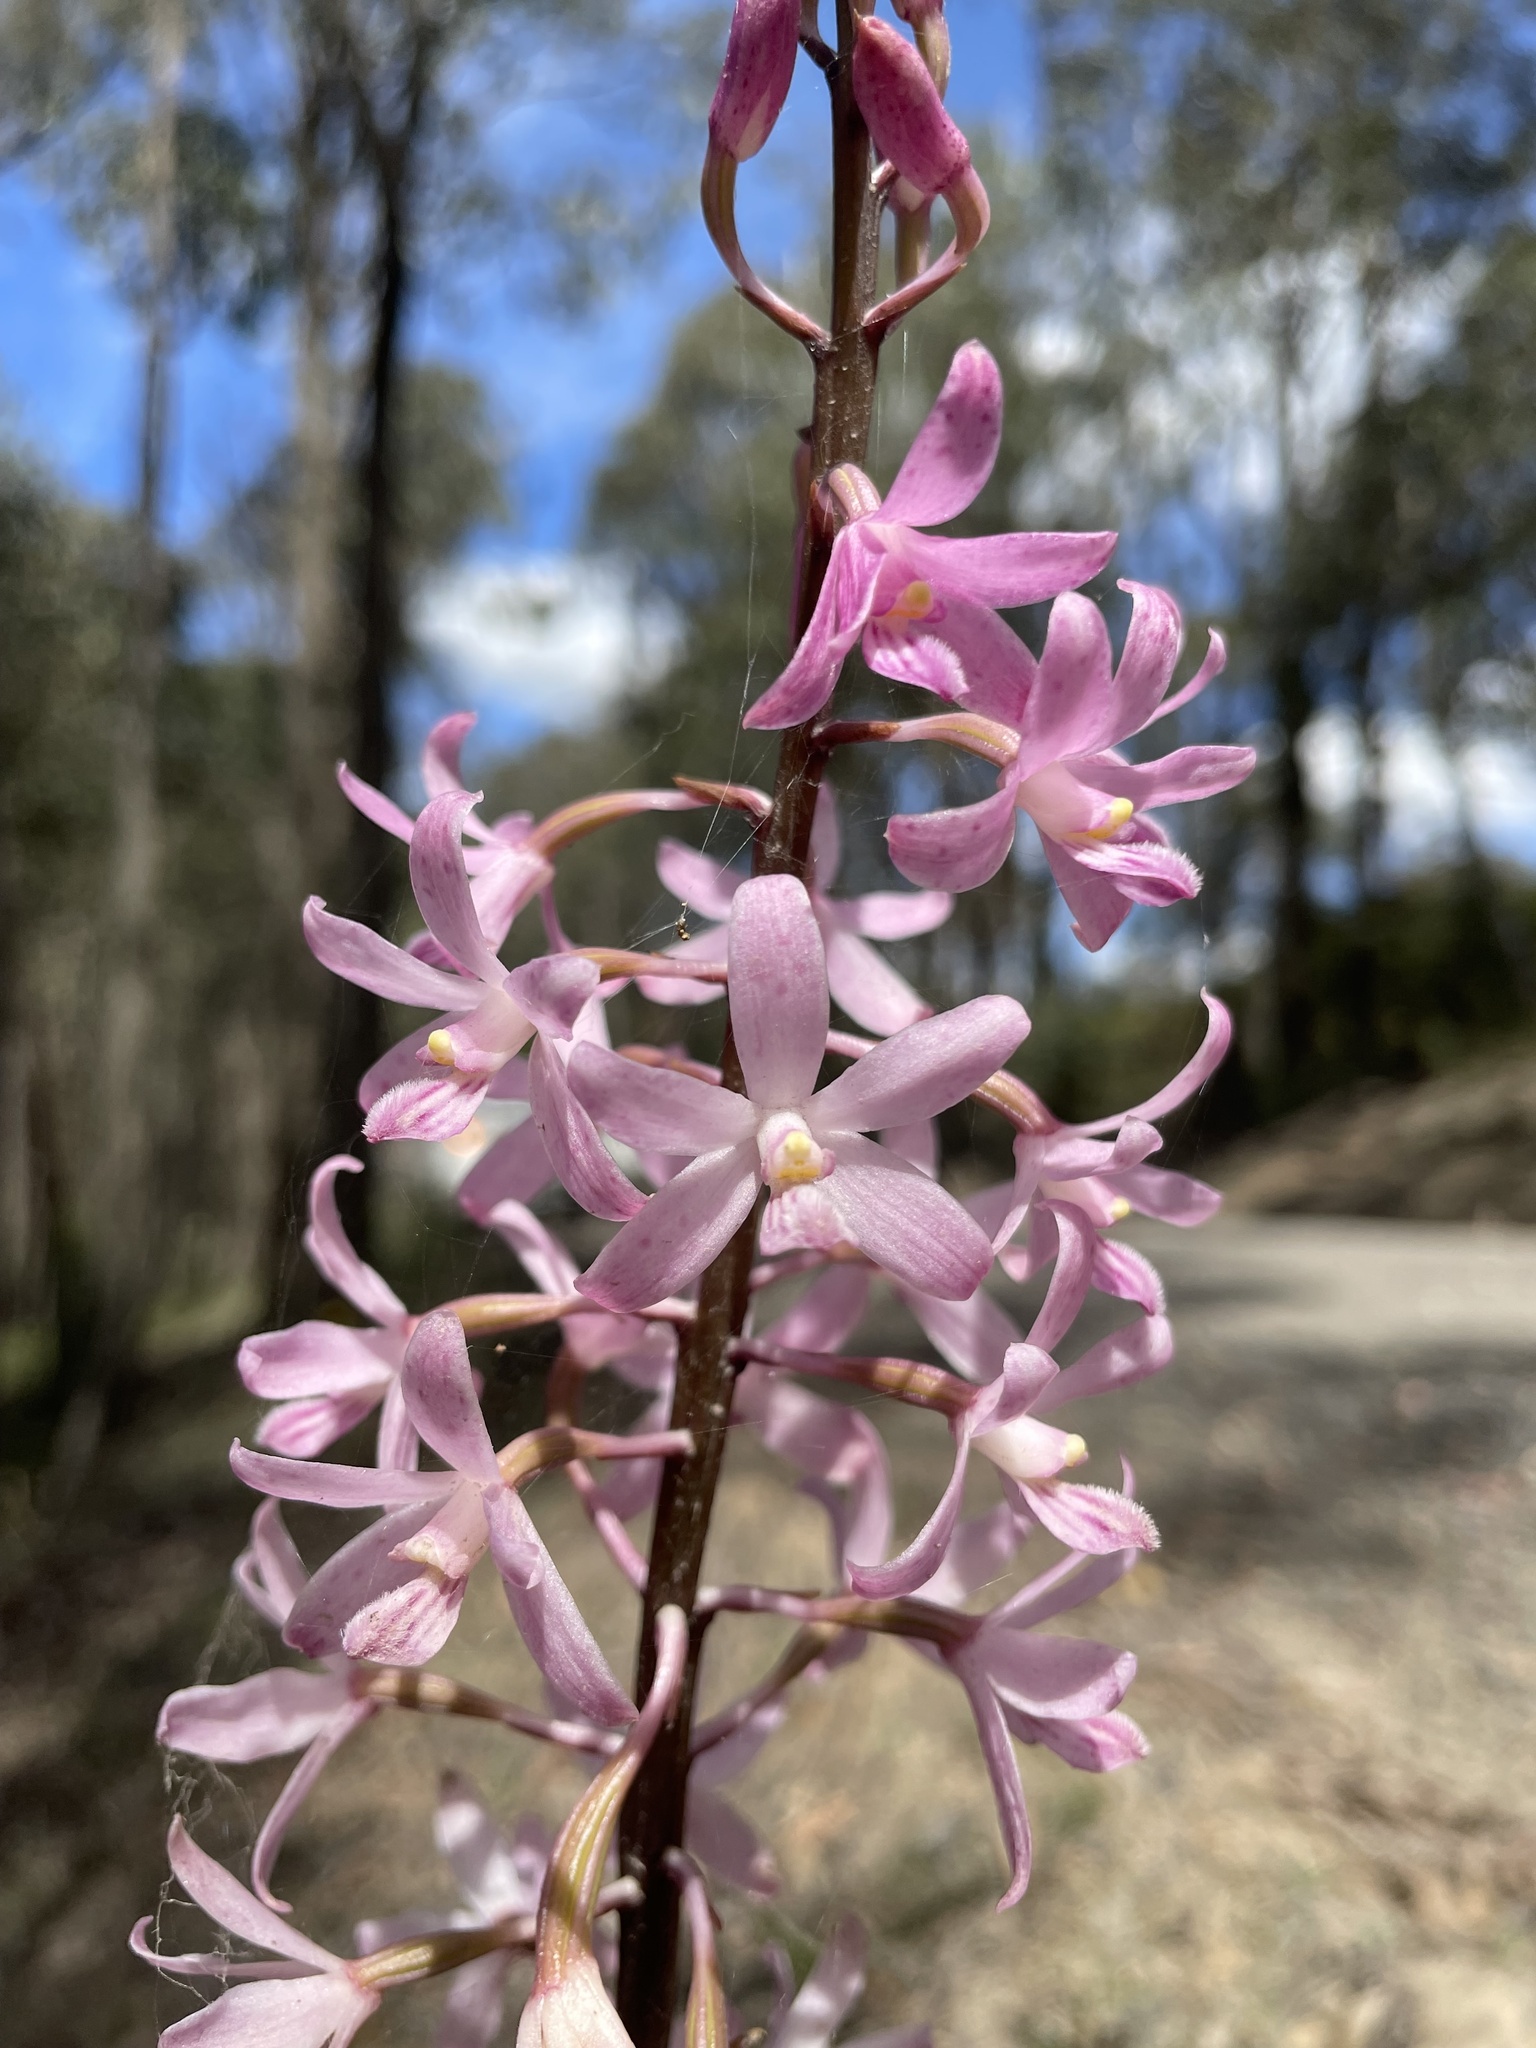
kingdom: Plantae
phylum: Tracheophyta
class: Liliopsida
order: Asparagales
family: Orchidaceae
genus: Dipodium
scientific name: Dipodium roseum
